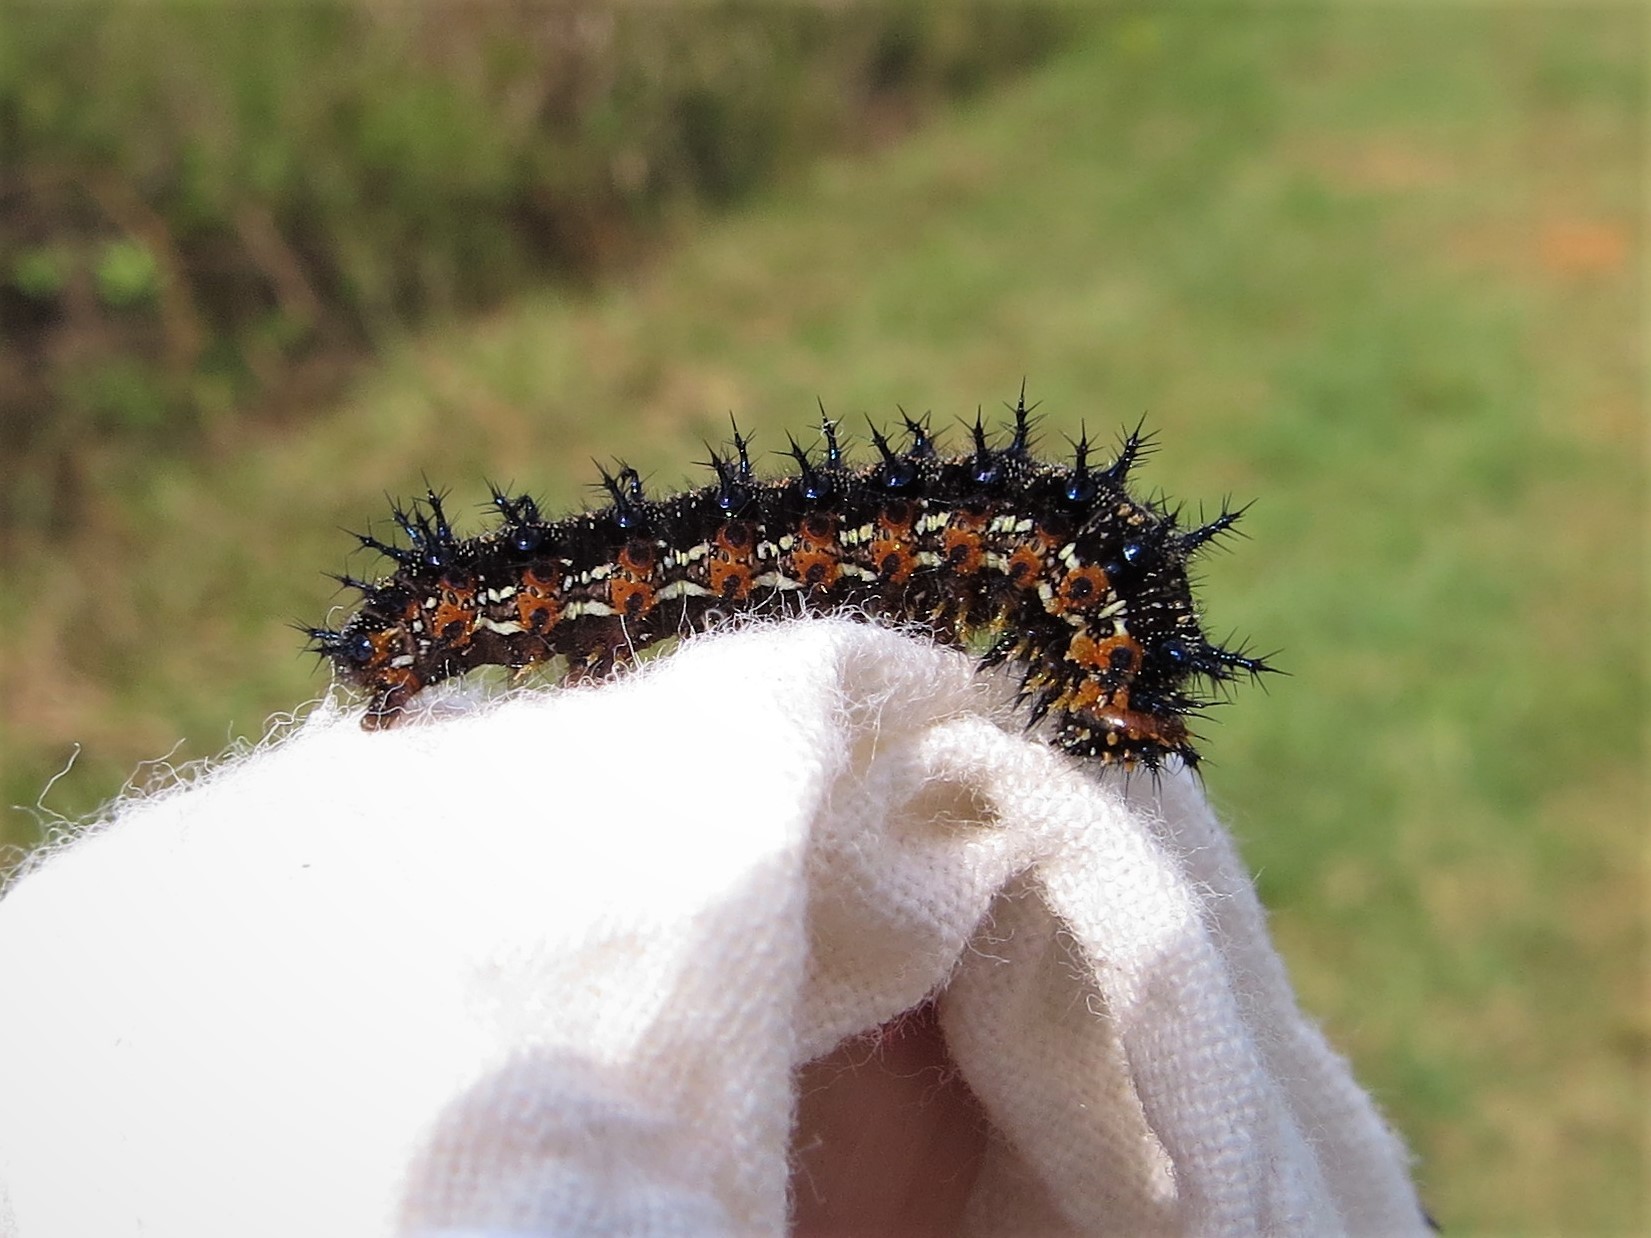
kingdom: Animalia
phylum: Arthropoda
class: Insecta
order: Lepidoptera
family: Nymphalidae
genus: Junonia
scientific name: Junonia coenia
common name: Common buckeye
